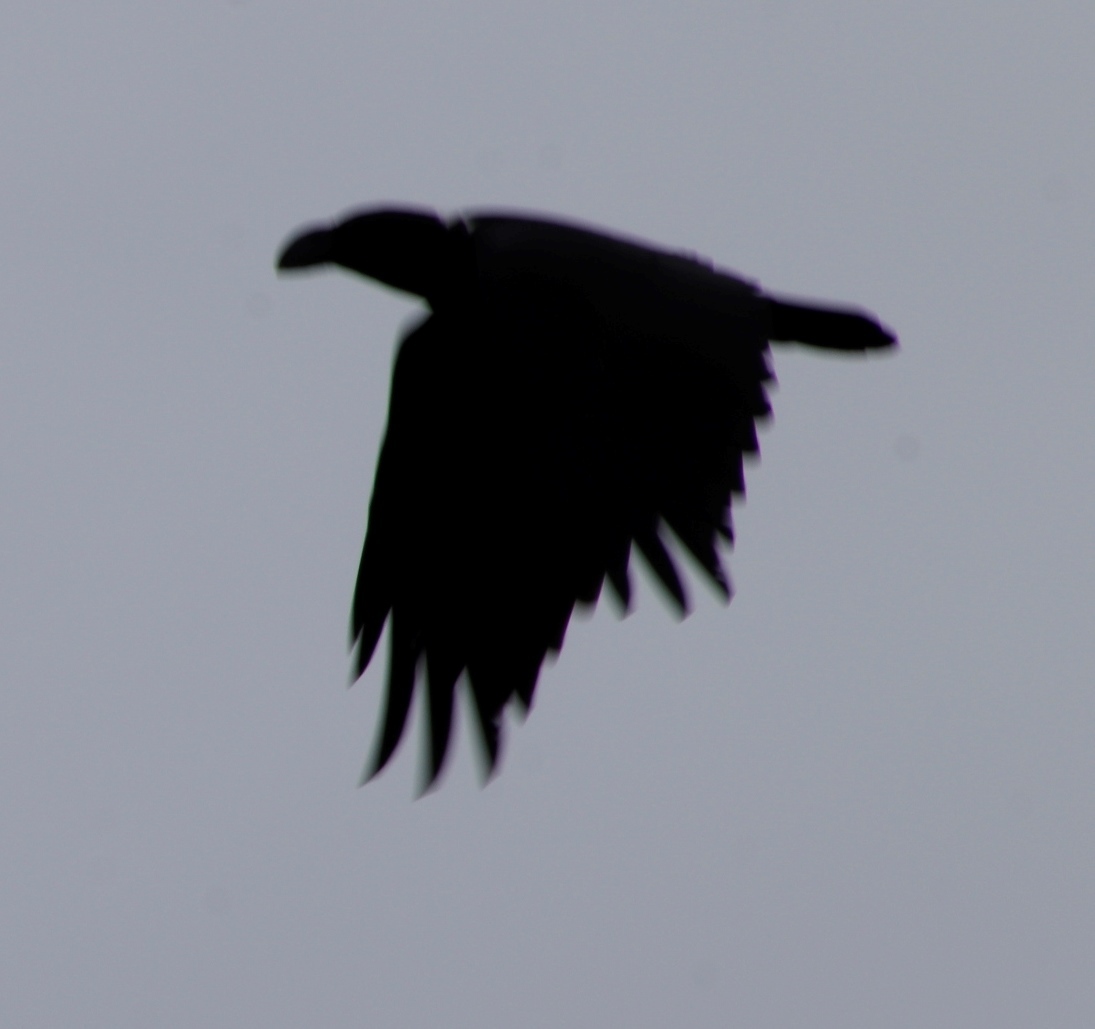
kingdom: Animalia
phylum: Chordata
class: Aves
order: Passeriformes
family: Corvidae
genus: Corvus
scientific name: Corvus albicollis
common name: White-necked raven
